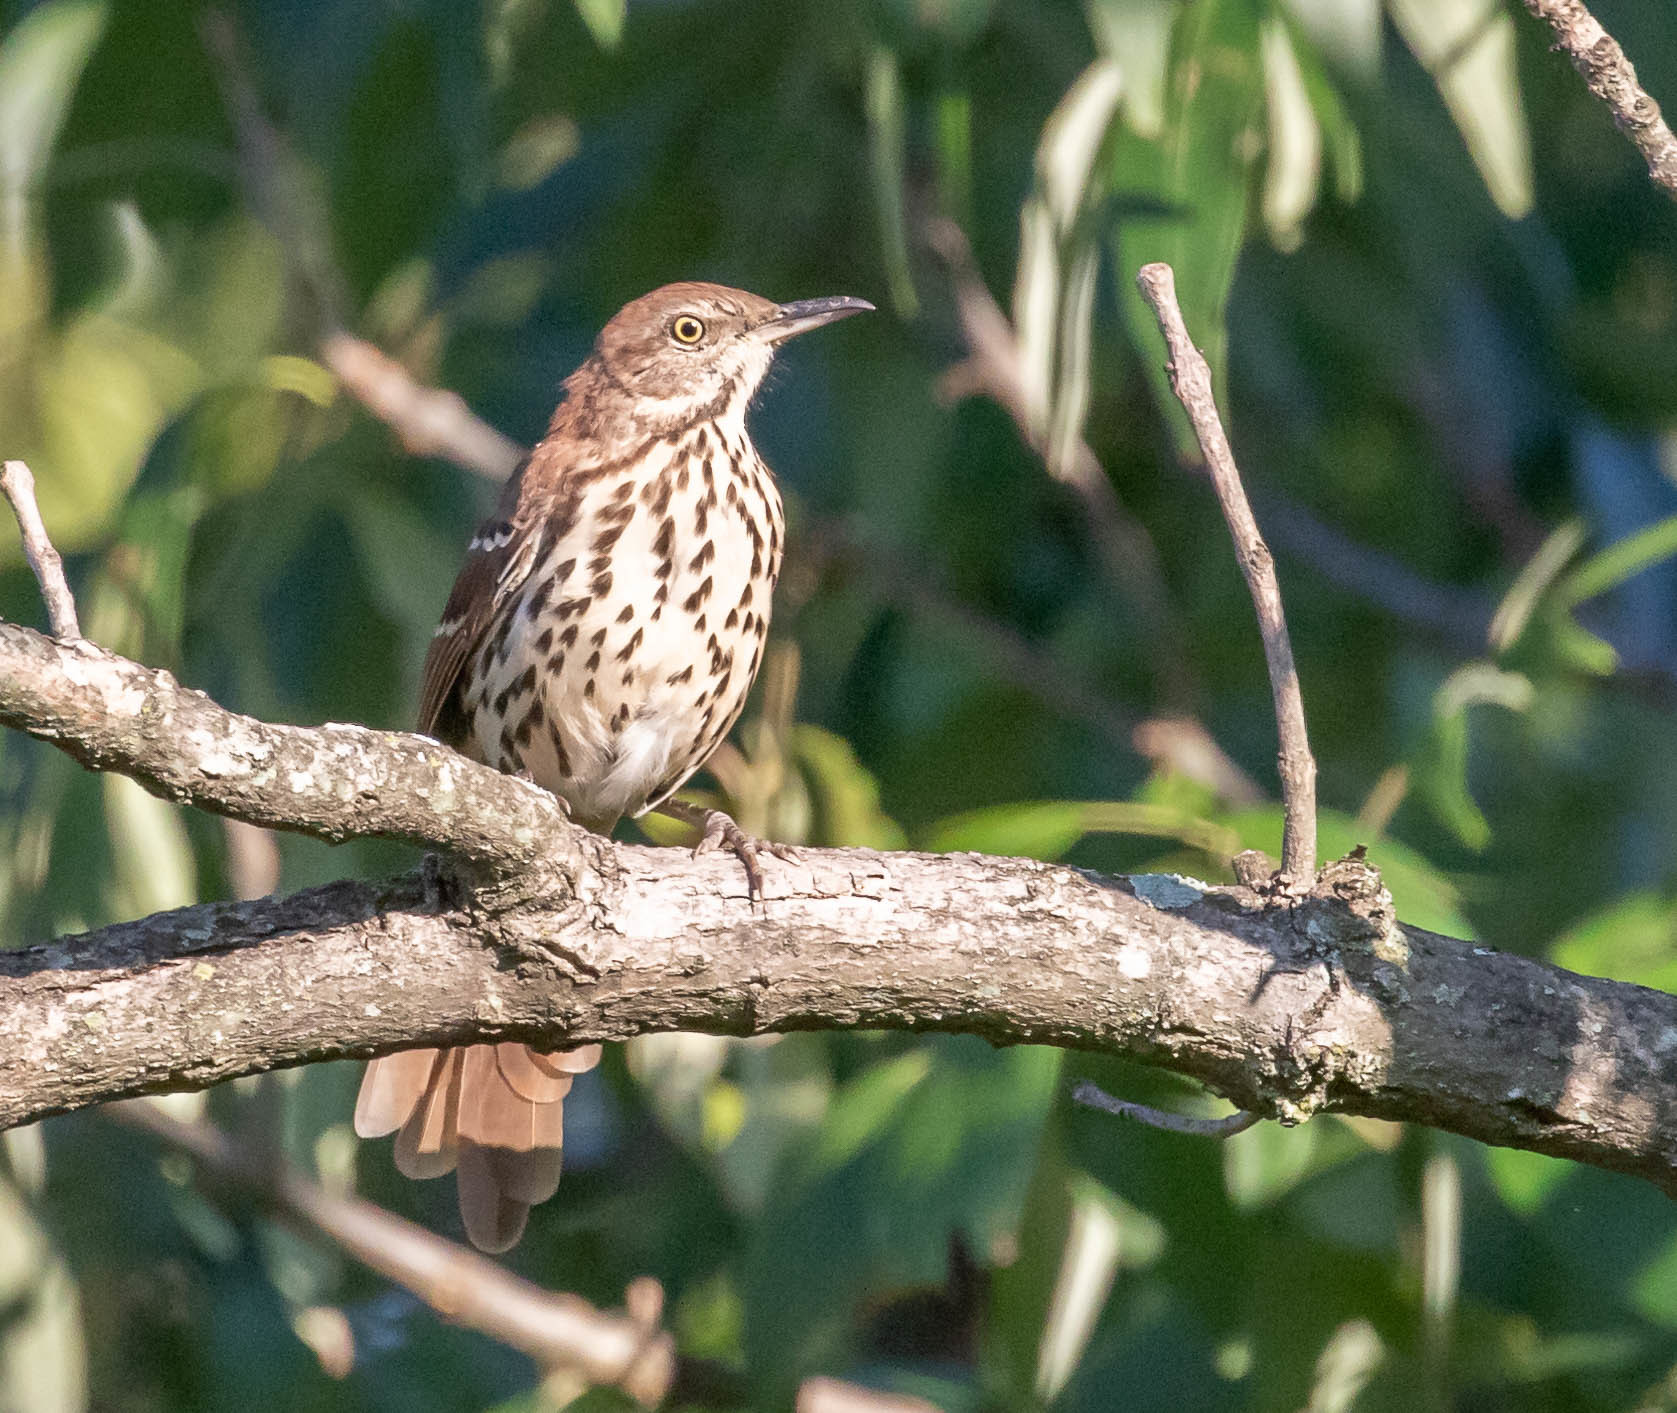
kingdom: Animalia
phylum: Chordata
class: Aves
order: Passeriformes
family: Mimidae
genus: Toxostoma
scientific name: Toxostoma rufum
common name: Brown thrasher
